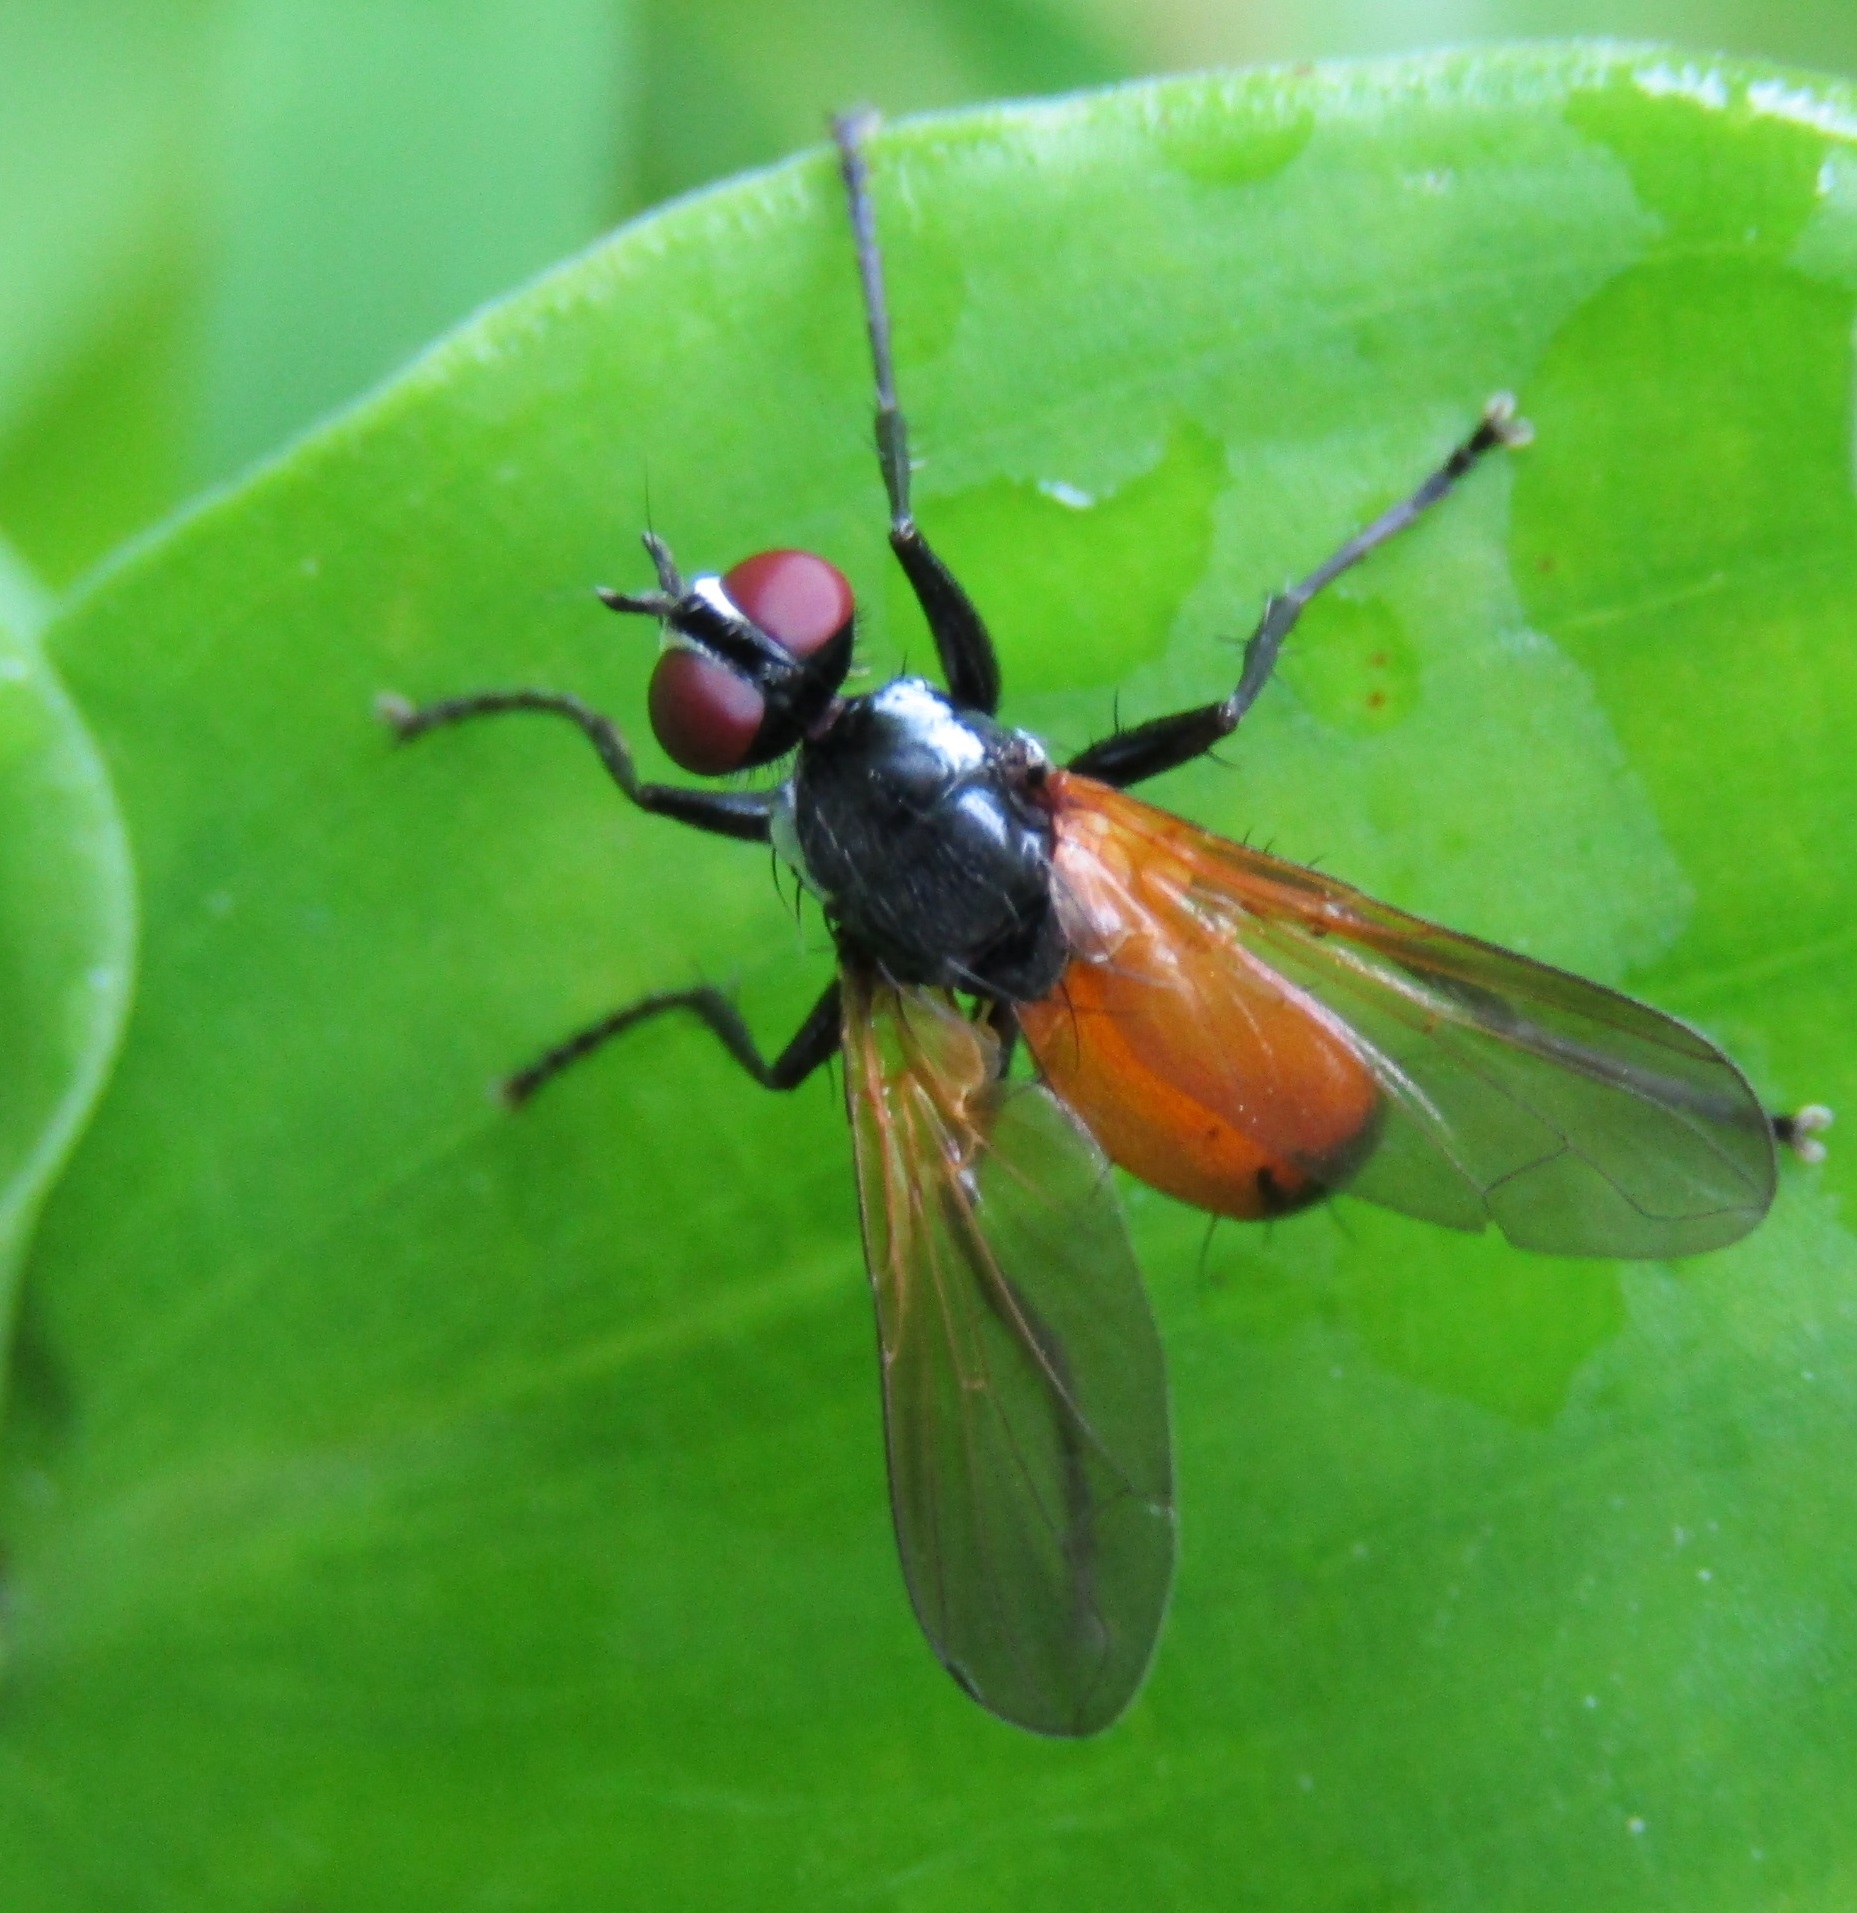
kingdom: Animalia
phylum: Arthropoda
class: Insecta
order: Diptera
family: Tachinidae
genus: Huttonobesseria
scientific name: Huttonobesseria verecunda
